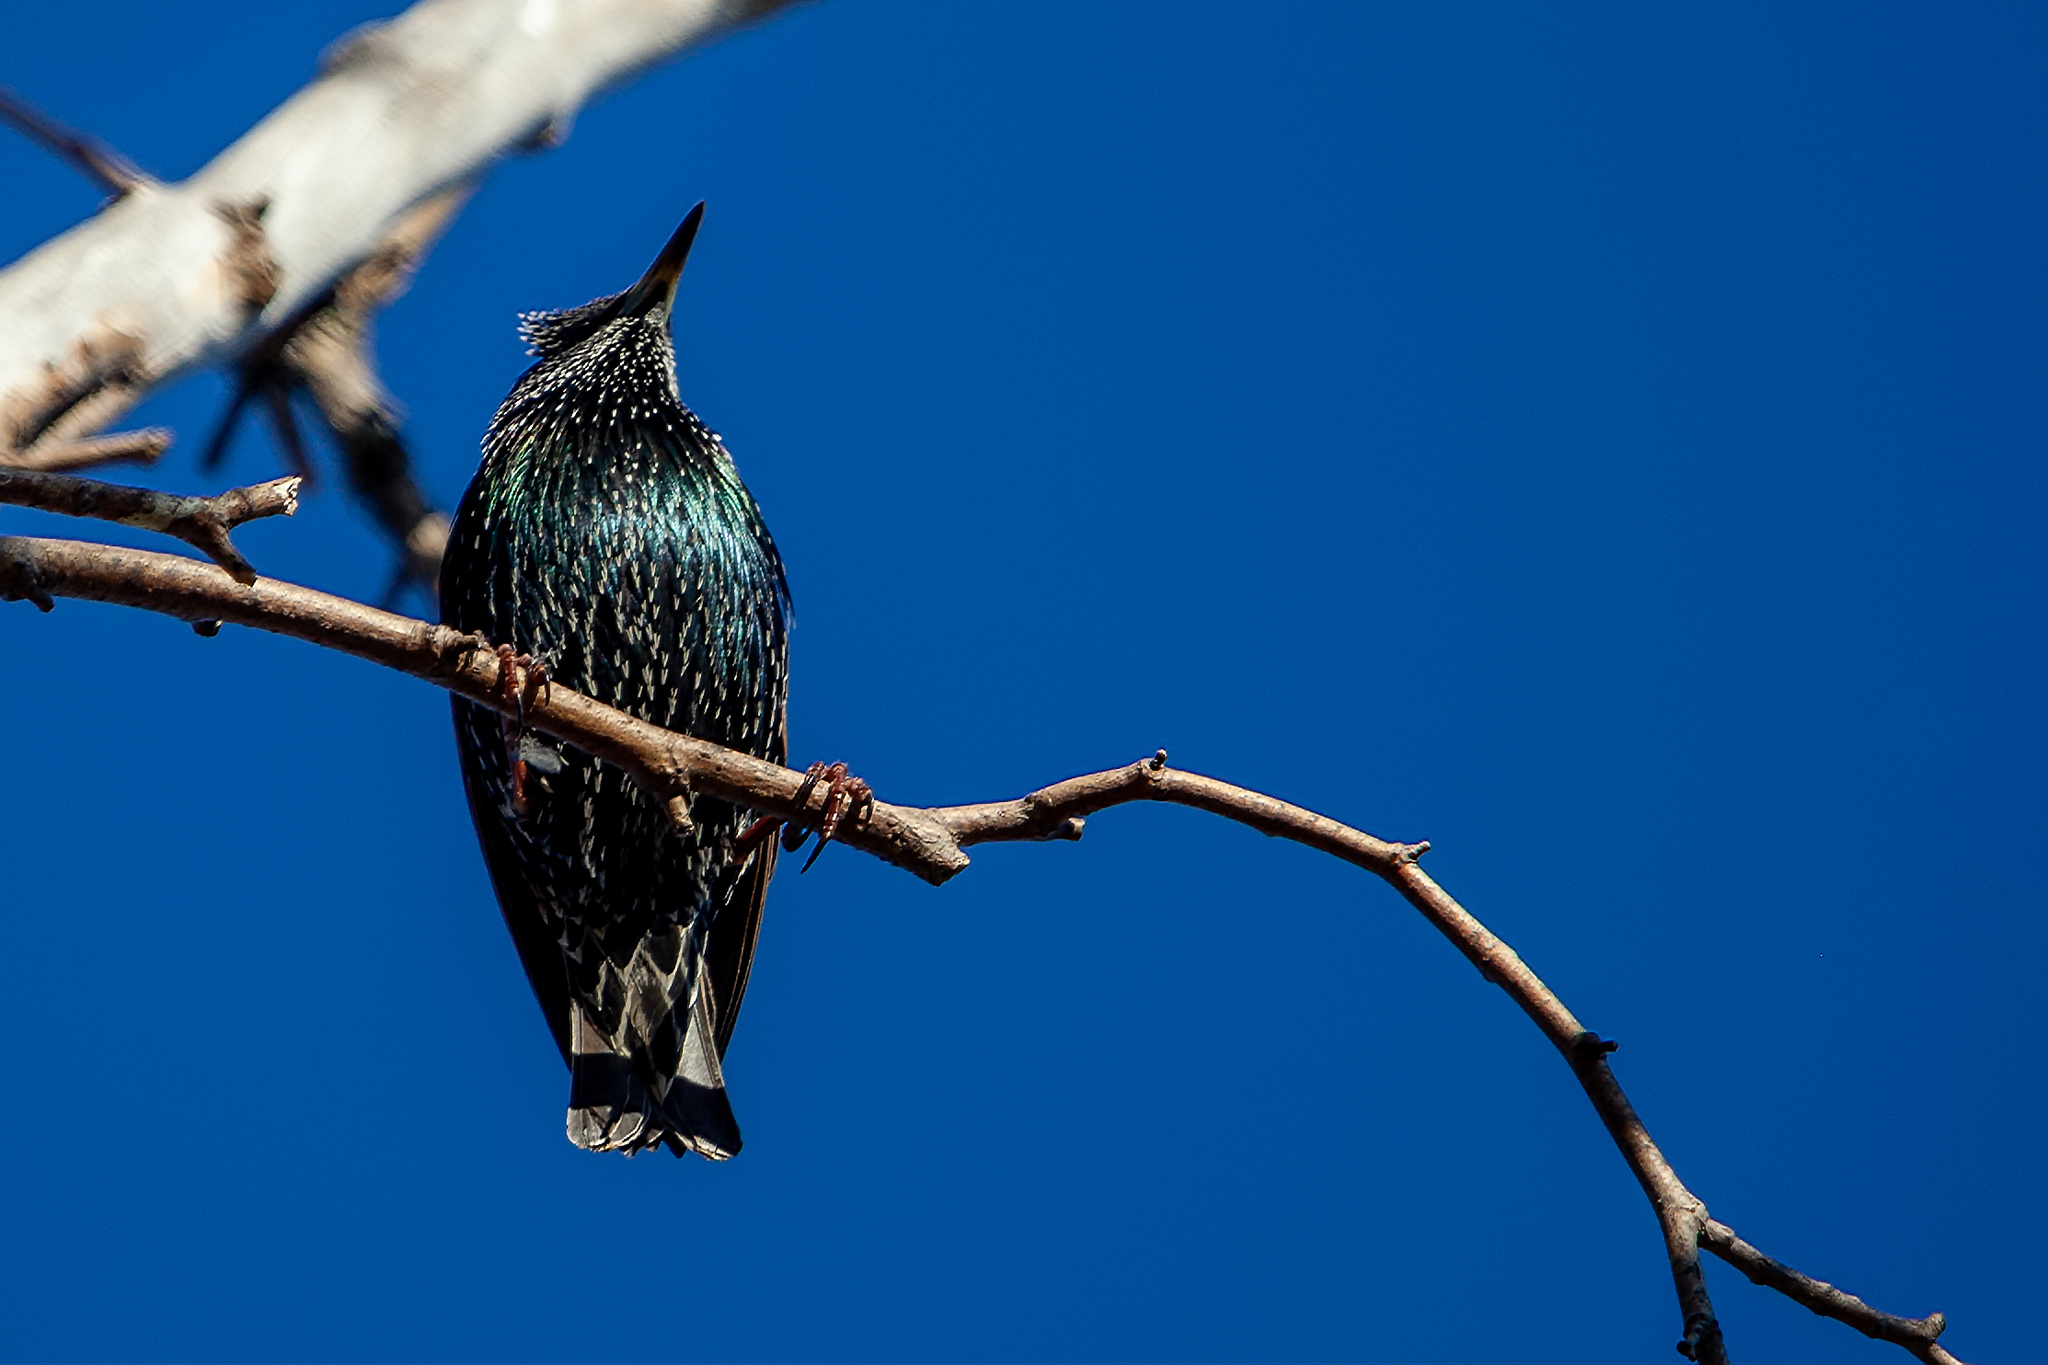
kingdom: Animalia
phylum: Chordata
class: Aves
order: Passeriformes
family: Sturnidae
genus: Sturnus
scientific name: Sturnus vulgaris
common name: Common starling
